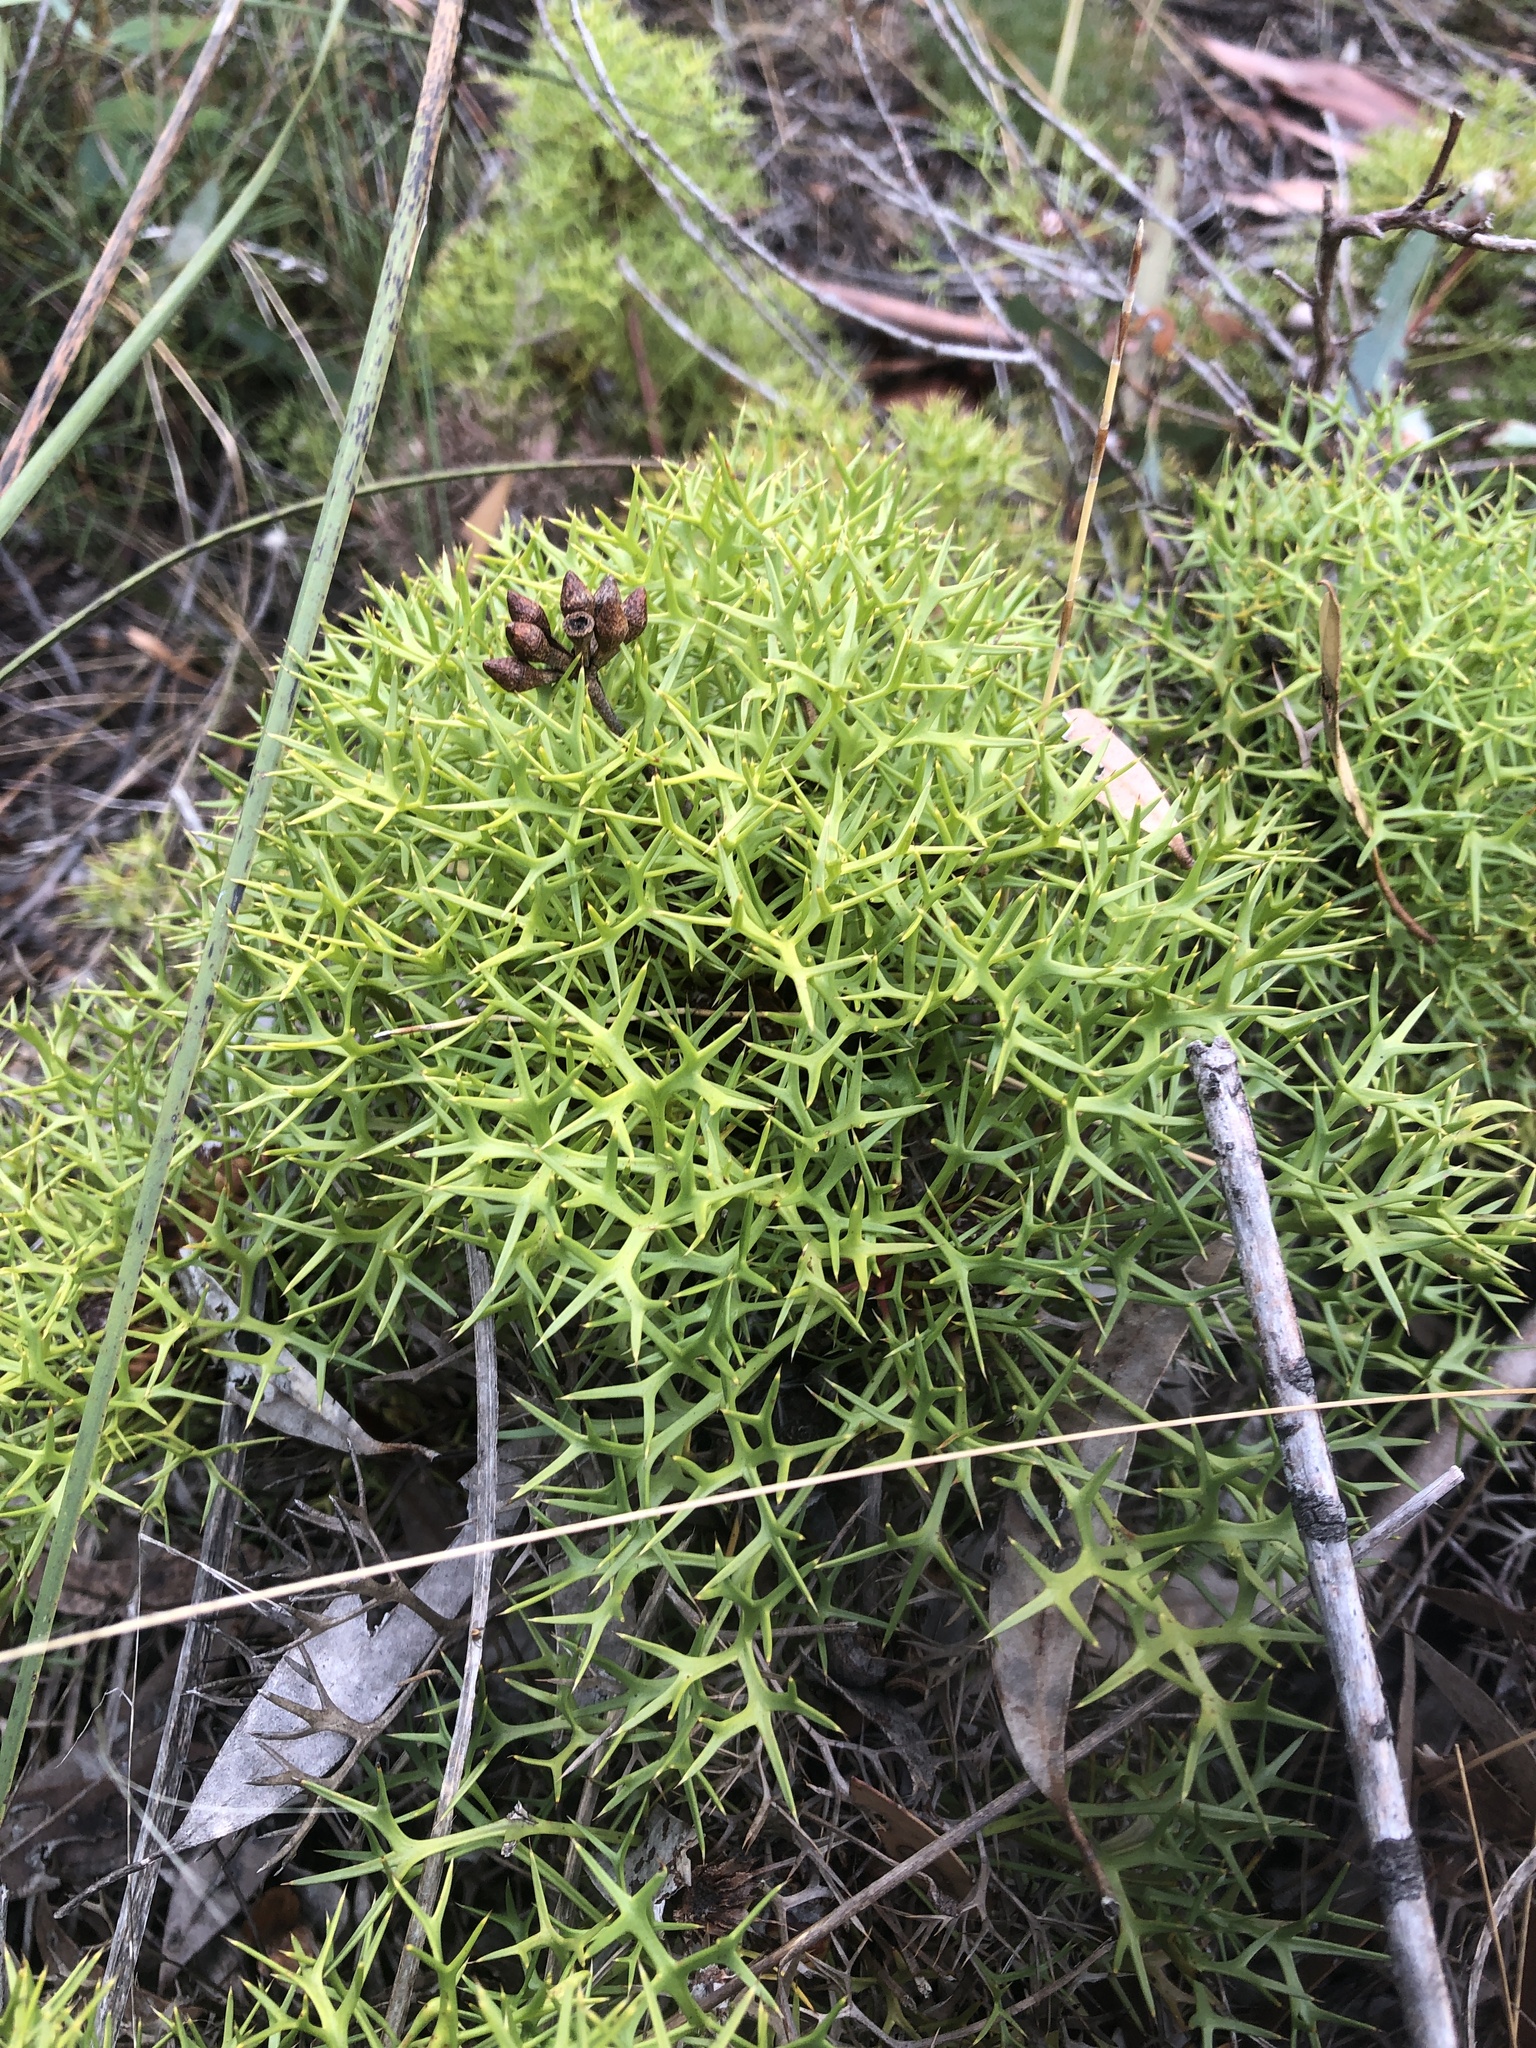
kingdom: Plantae
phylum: Tracheophyta
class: Magnoliopsida
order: Proteales
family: Proteaceae
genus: Isopogon
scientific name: Isopogon ceratophyllus
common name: Horny cone-bush
